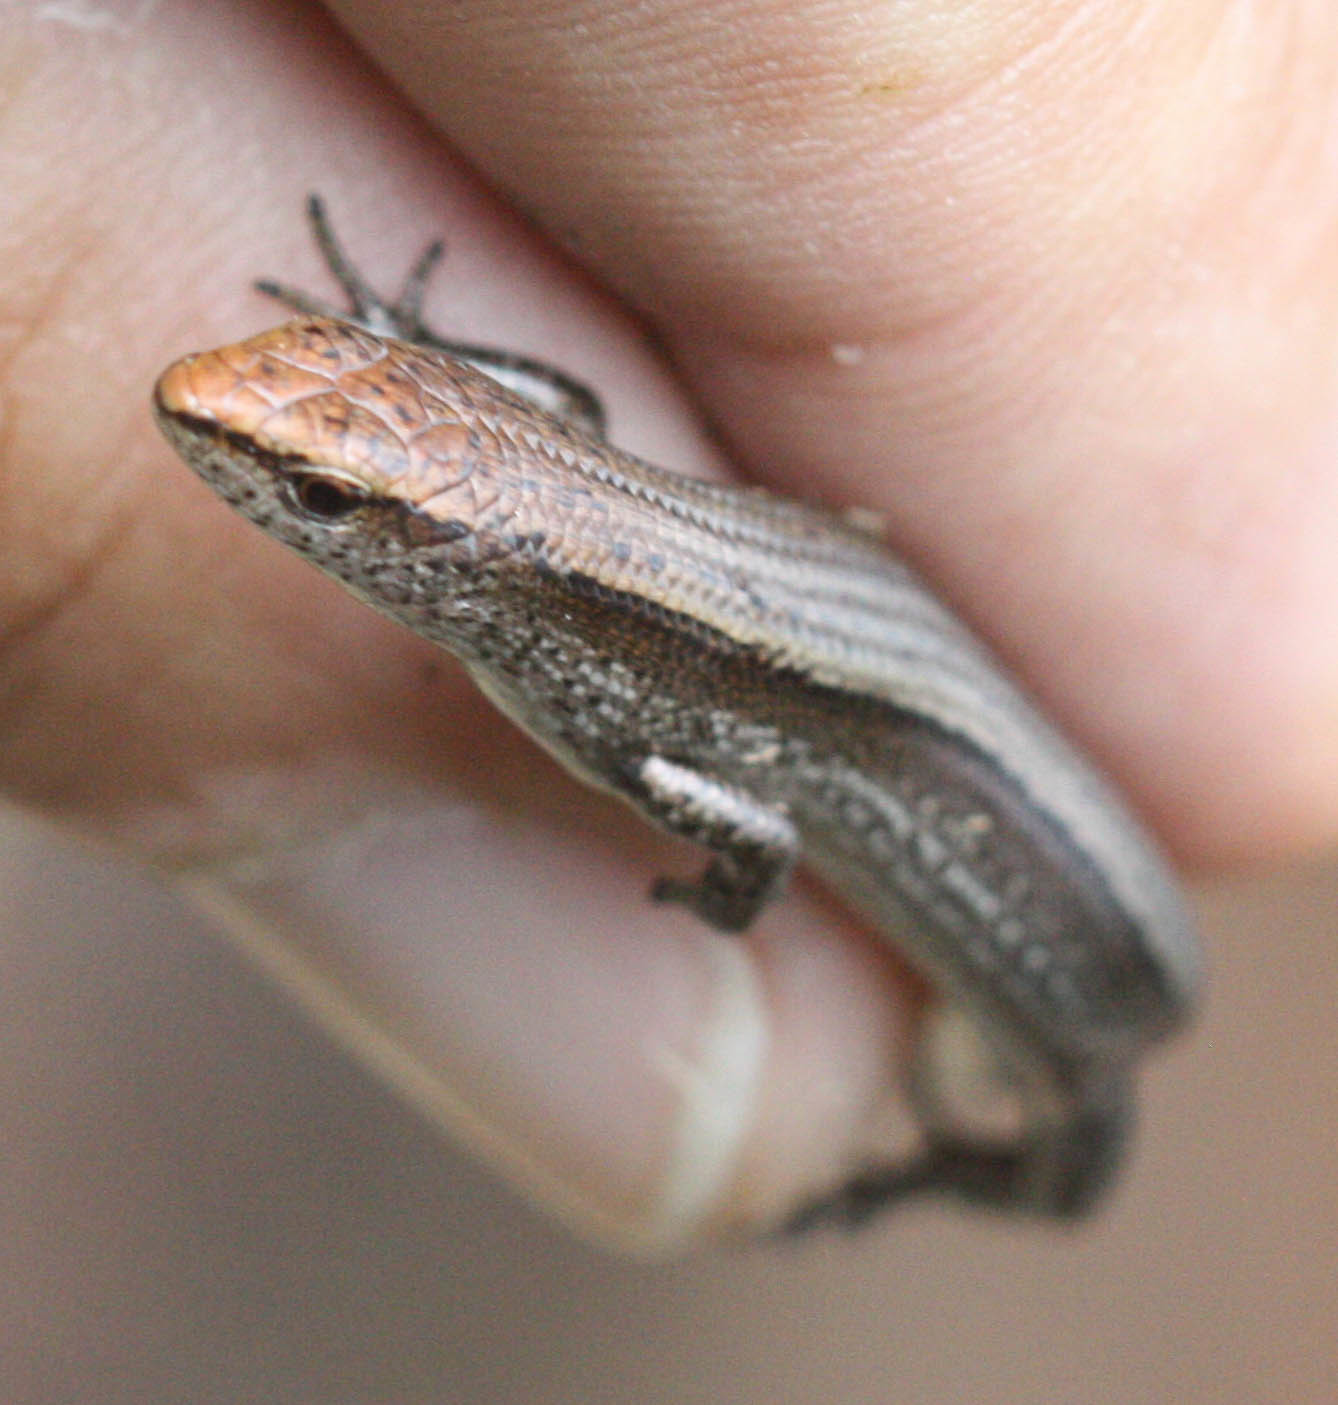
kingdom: Animalia
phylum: Chordata
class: Squamata
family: Scincidae
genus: Lampropholis
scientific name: Lampropholis delicata
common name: Plague skink
